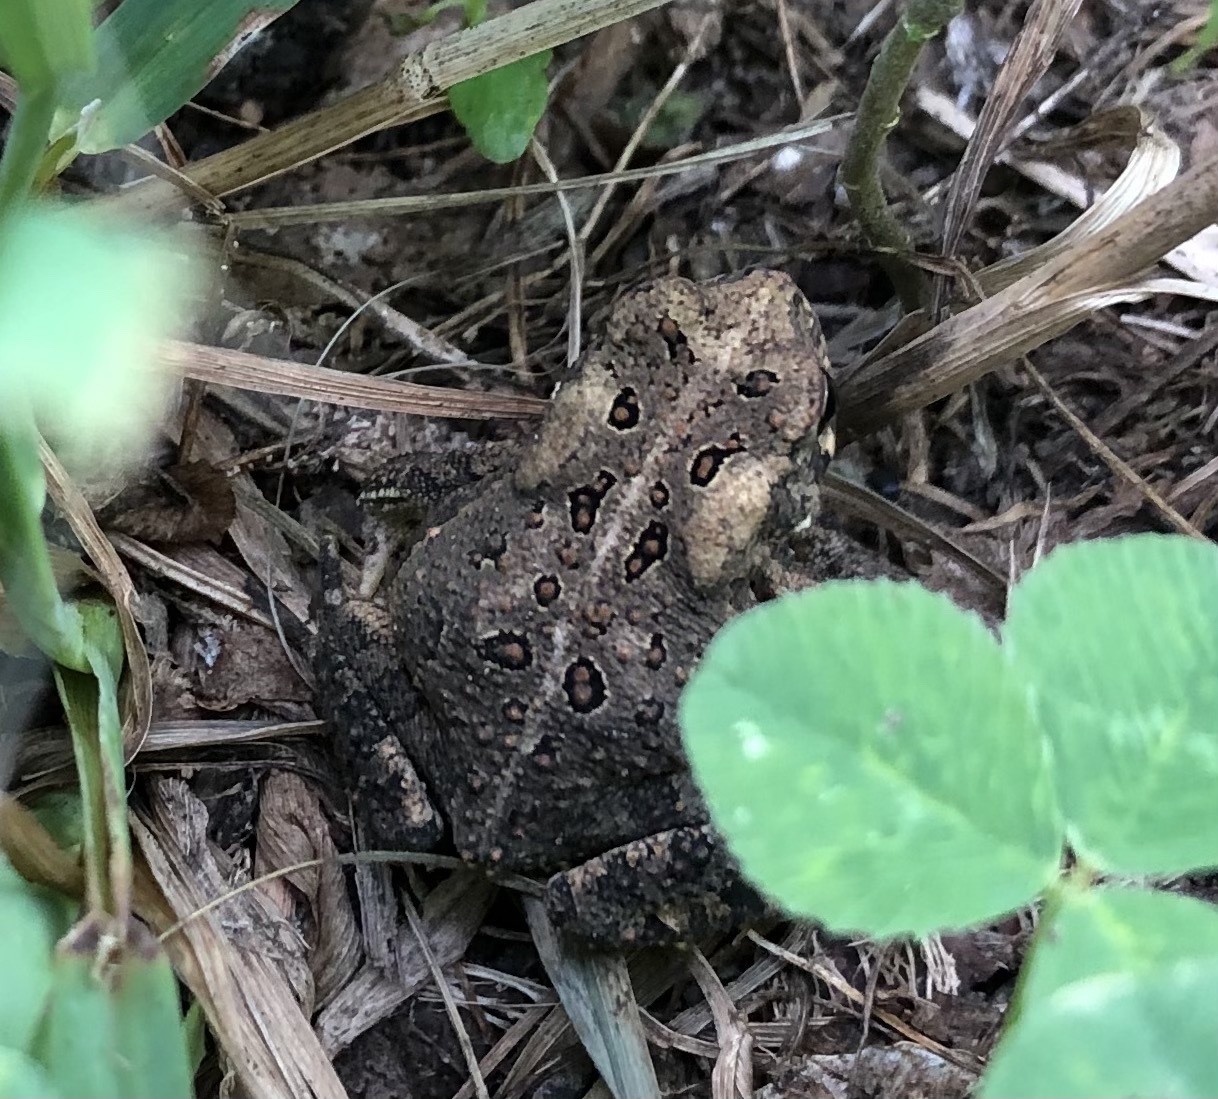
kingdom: Animalia
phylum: Chordata
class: Amphibia
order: Anura
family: Bufonidae
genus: Anaxyrus
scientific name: Anaxyrus americanus
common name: American toad
